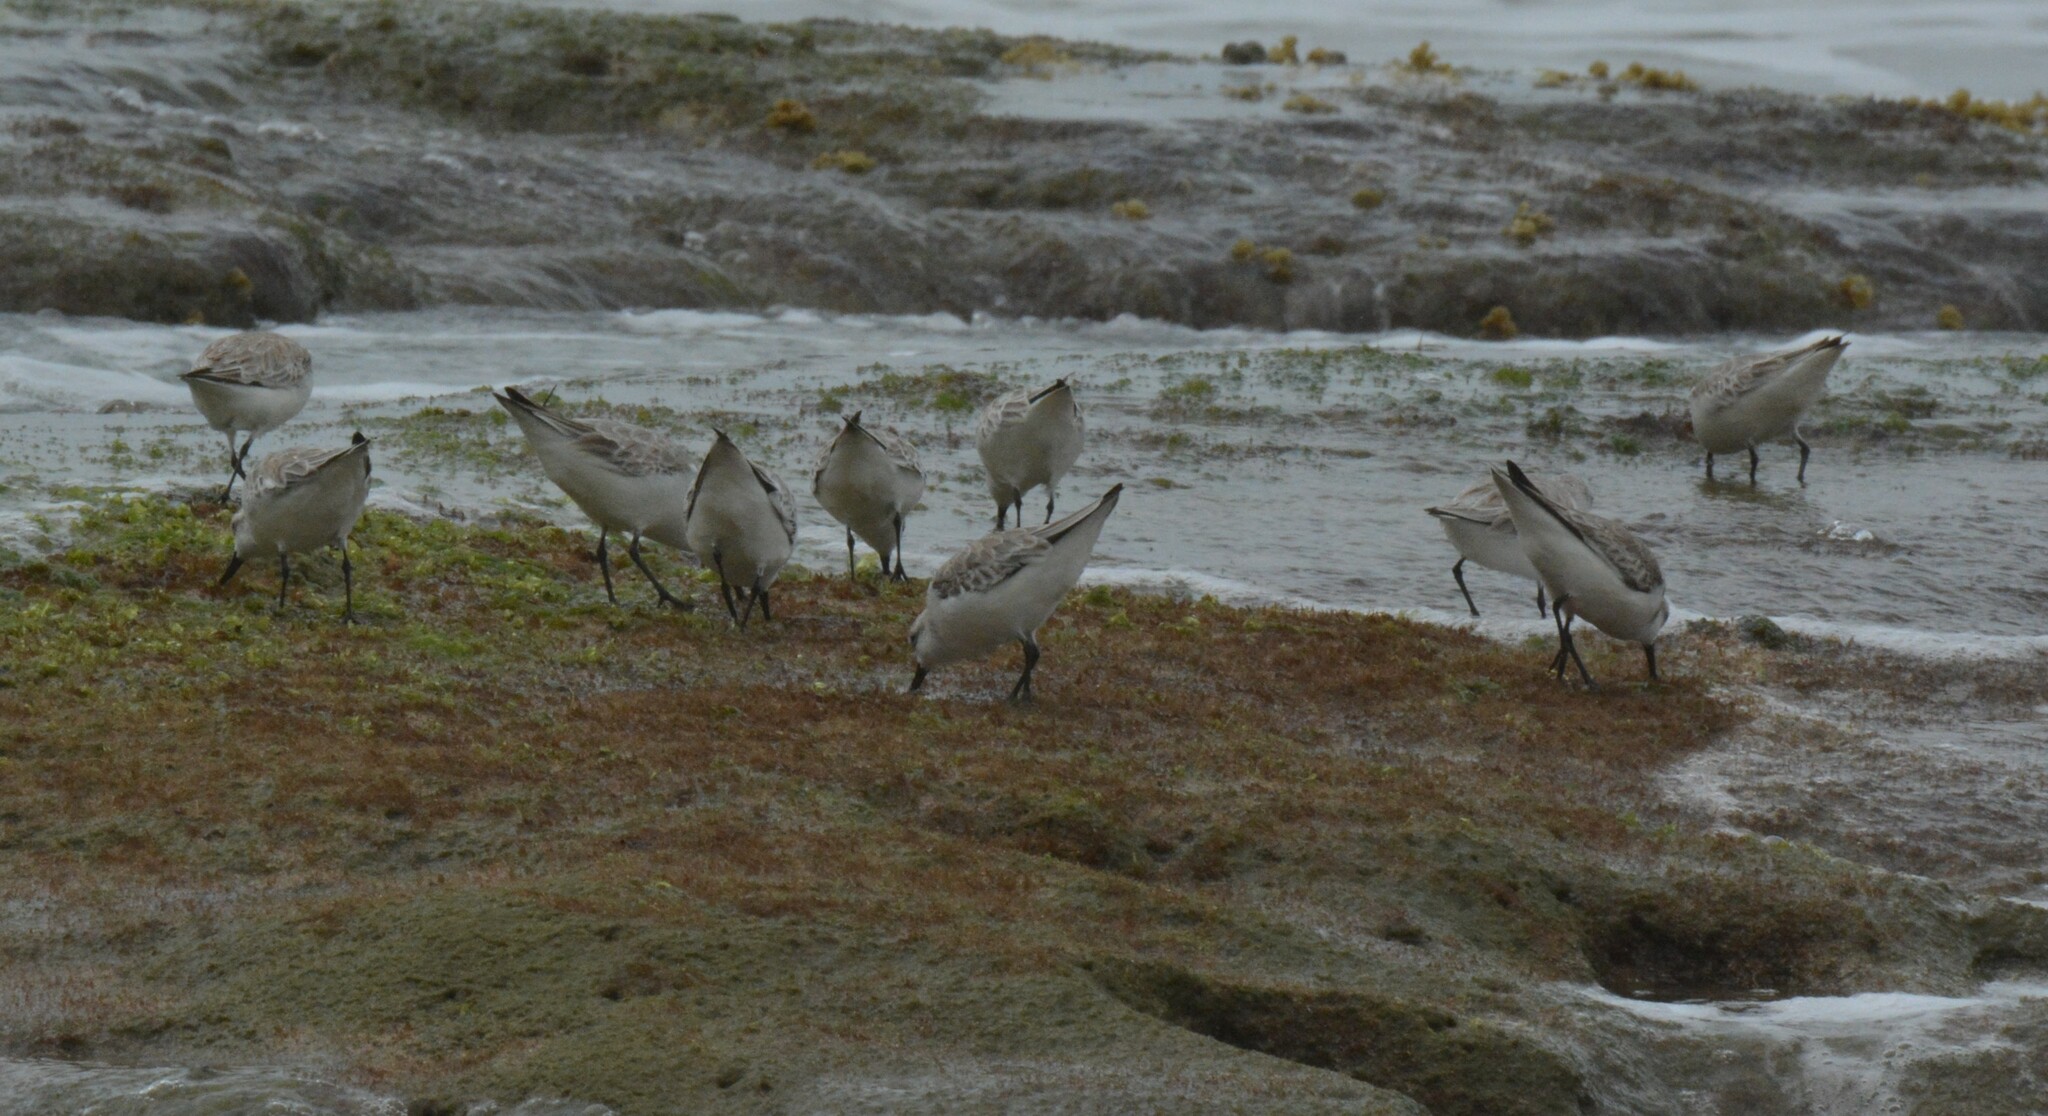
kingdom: Animalia
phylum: Chordata
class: Aves
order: Charadriiformes
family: Scolopacidae
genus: Calidris
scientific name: Calidris alba
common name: Sanderling
